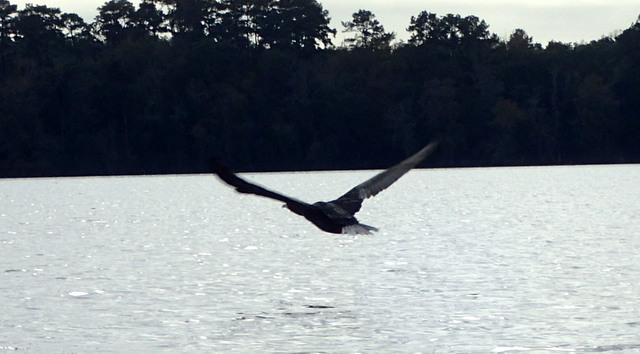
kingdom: Animalia
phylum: Chordata
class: Aves
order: Suliformes
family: Phalacrocoracidae
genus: Phalacrocorax
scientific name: Phalacrocorax auritus
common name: Double-crested cormorant
